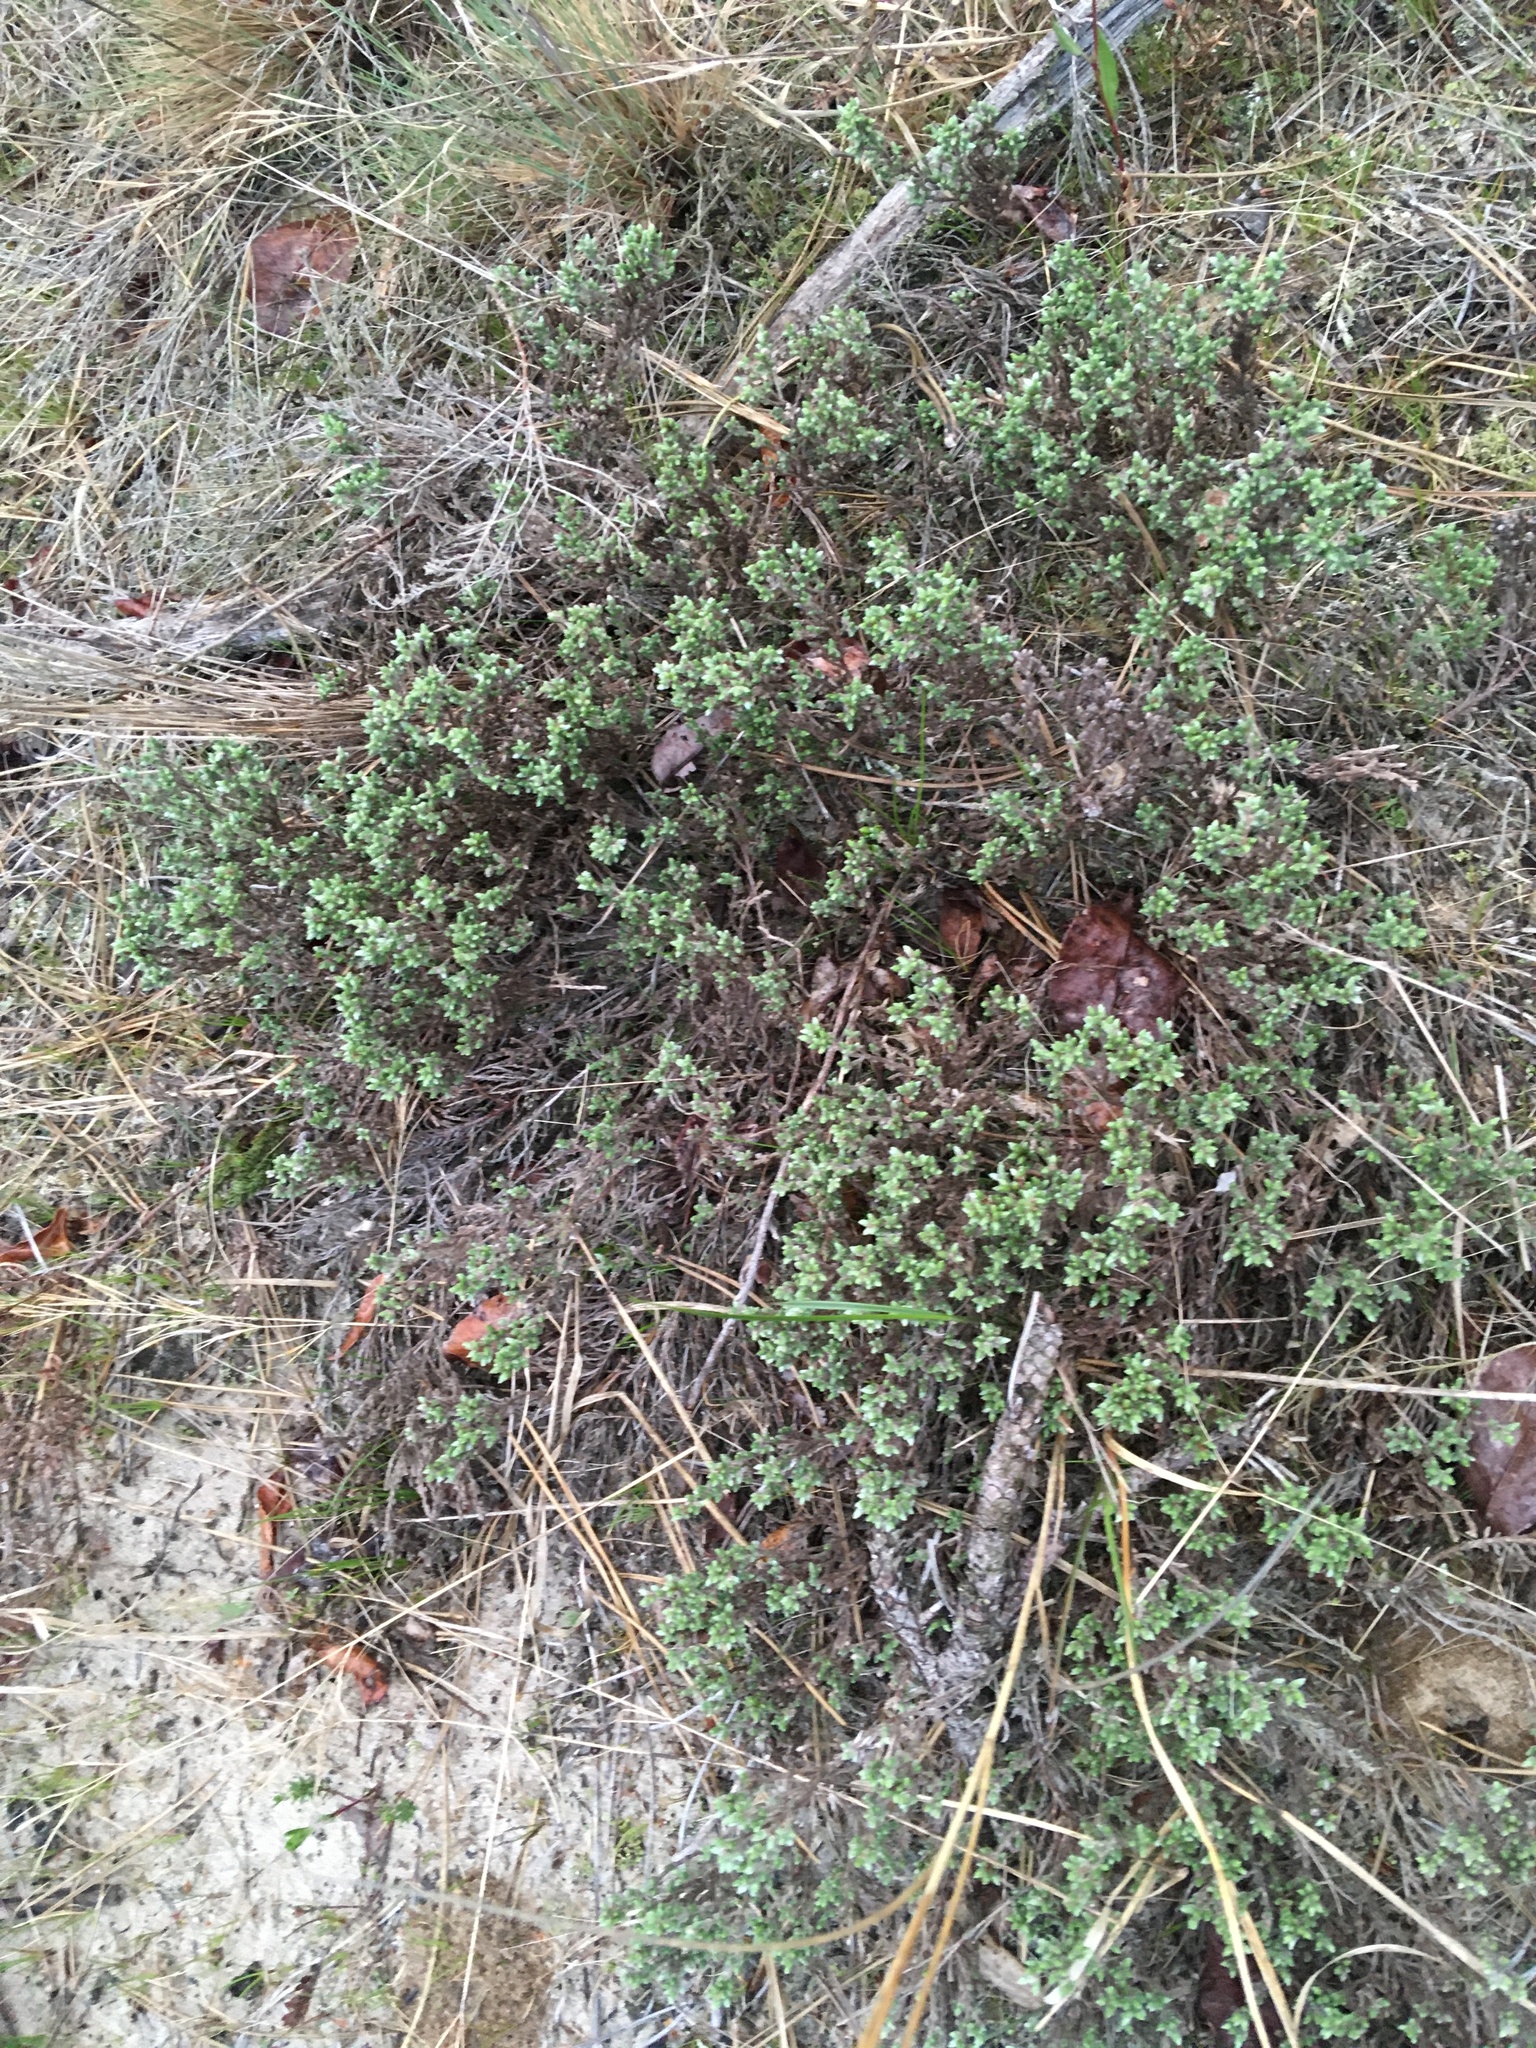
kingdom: Plantae
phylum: Tracheophyta
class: Magnoliopsida
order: Malvales
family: Cistaceae
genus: Hudsonia
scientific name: Hudsonia tomentosa
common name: Beach-heath
